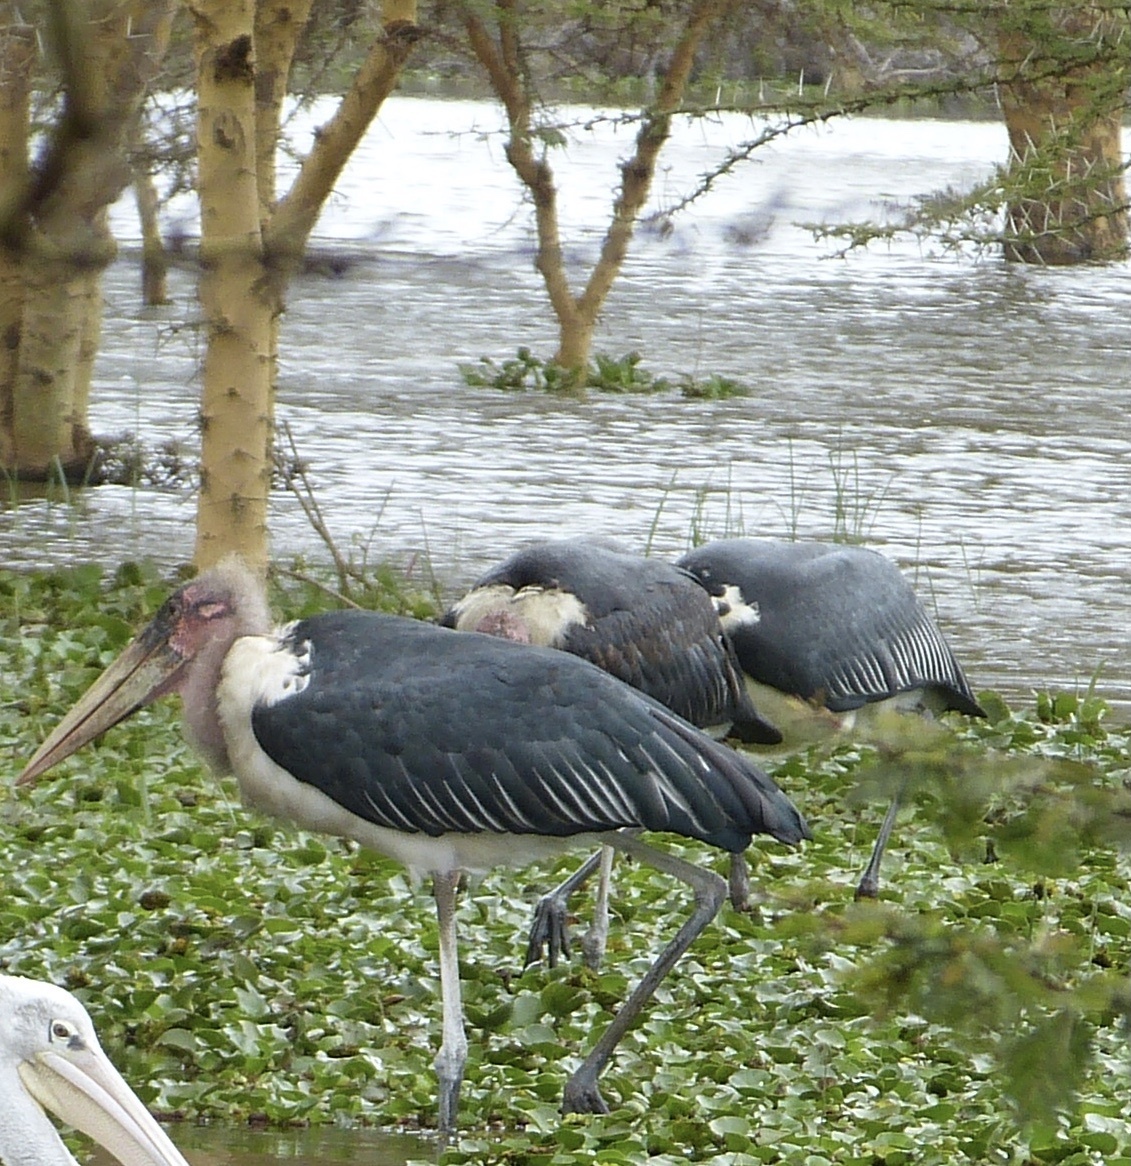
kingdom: Animalia
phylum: Chordata
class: Aves
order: Ciconiiformes
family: Ciconiidae
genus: Leptoptilos
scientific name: Leptoptilos crumenifer
